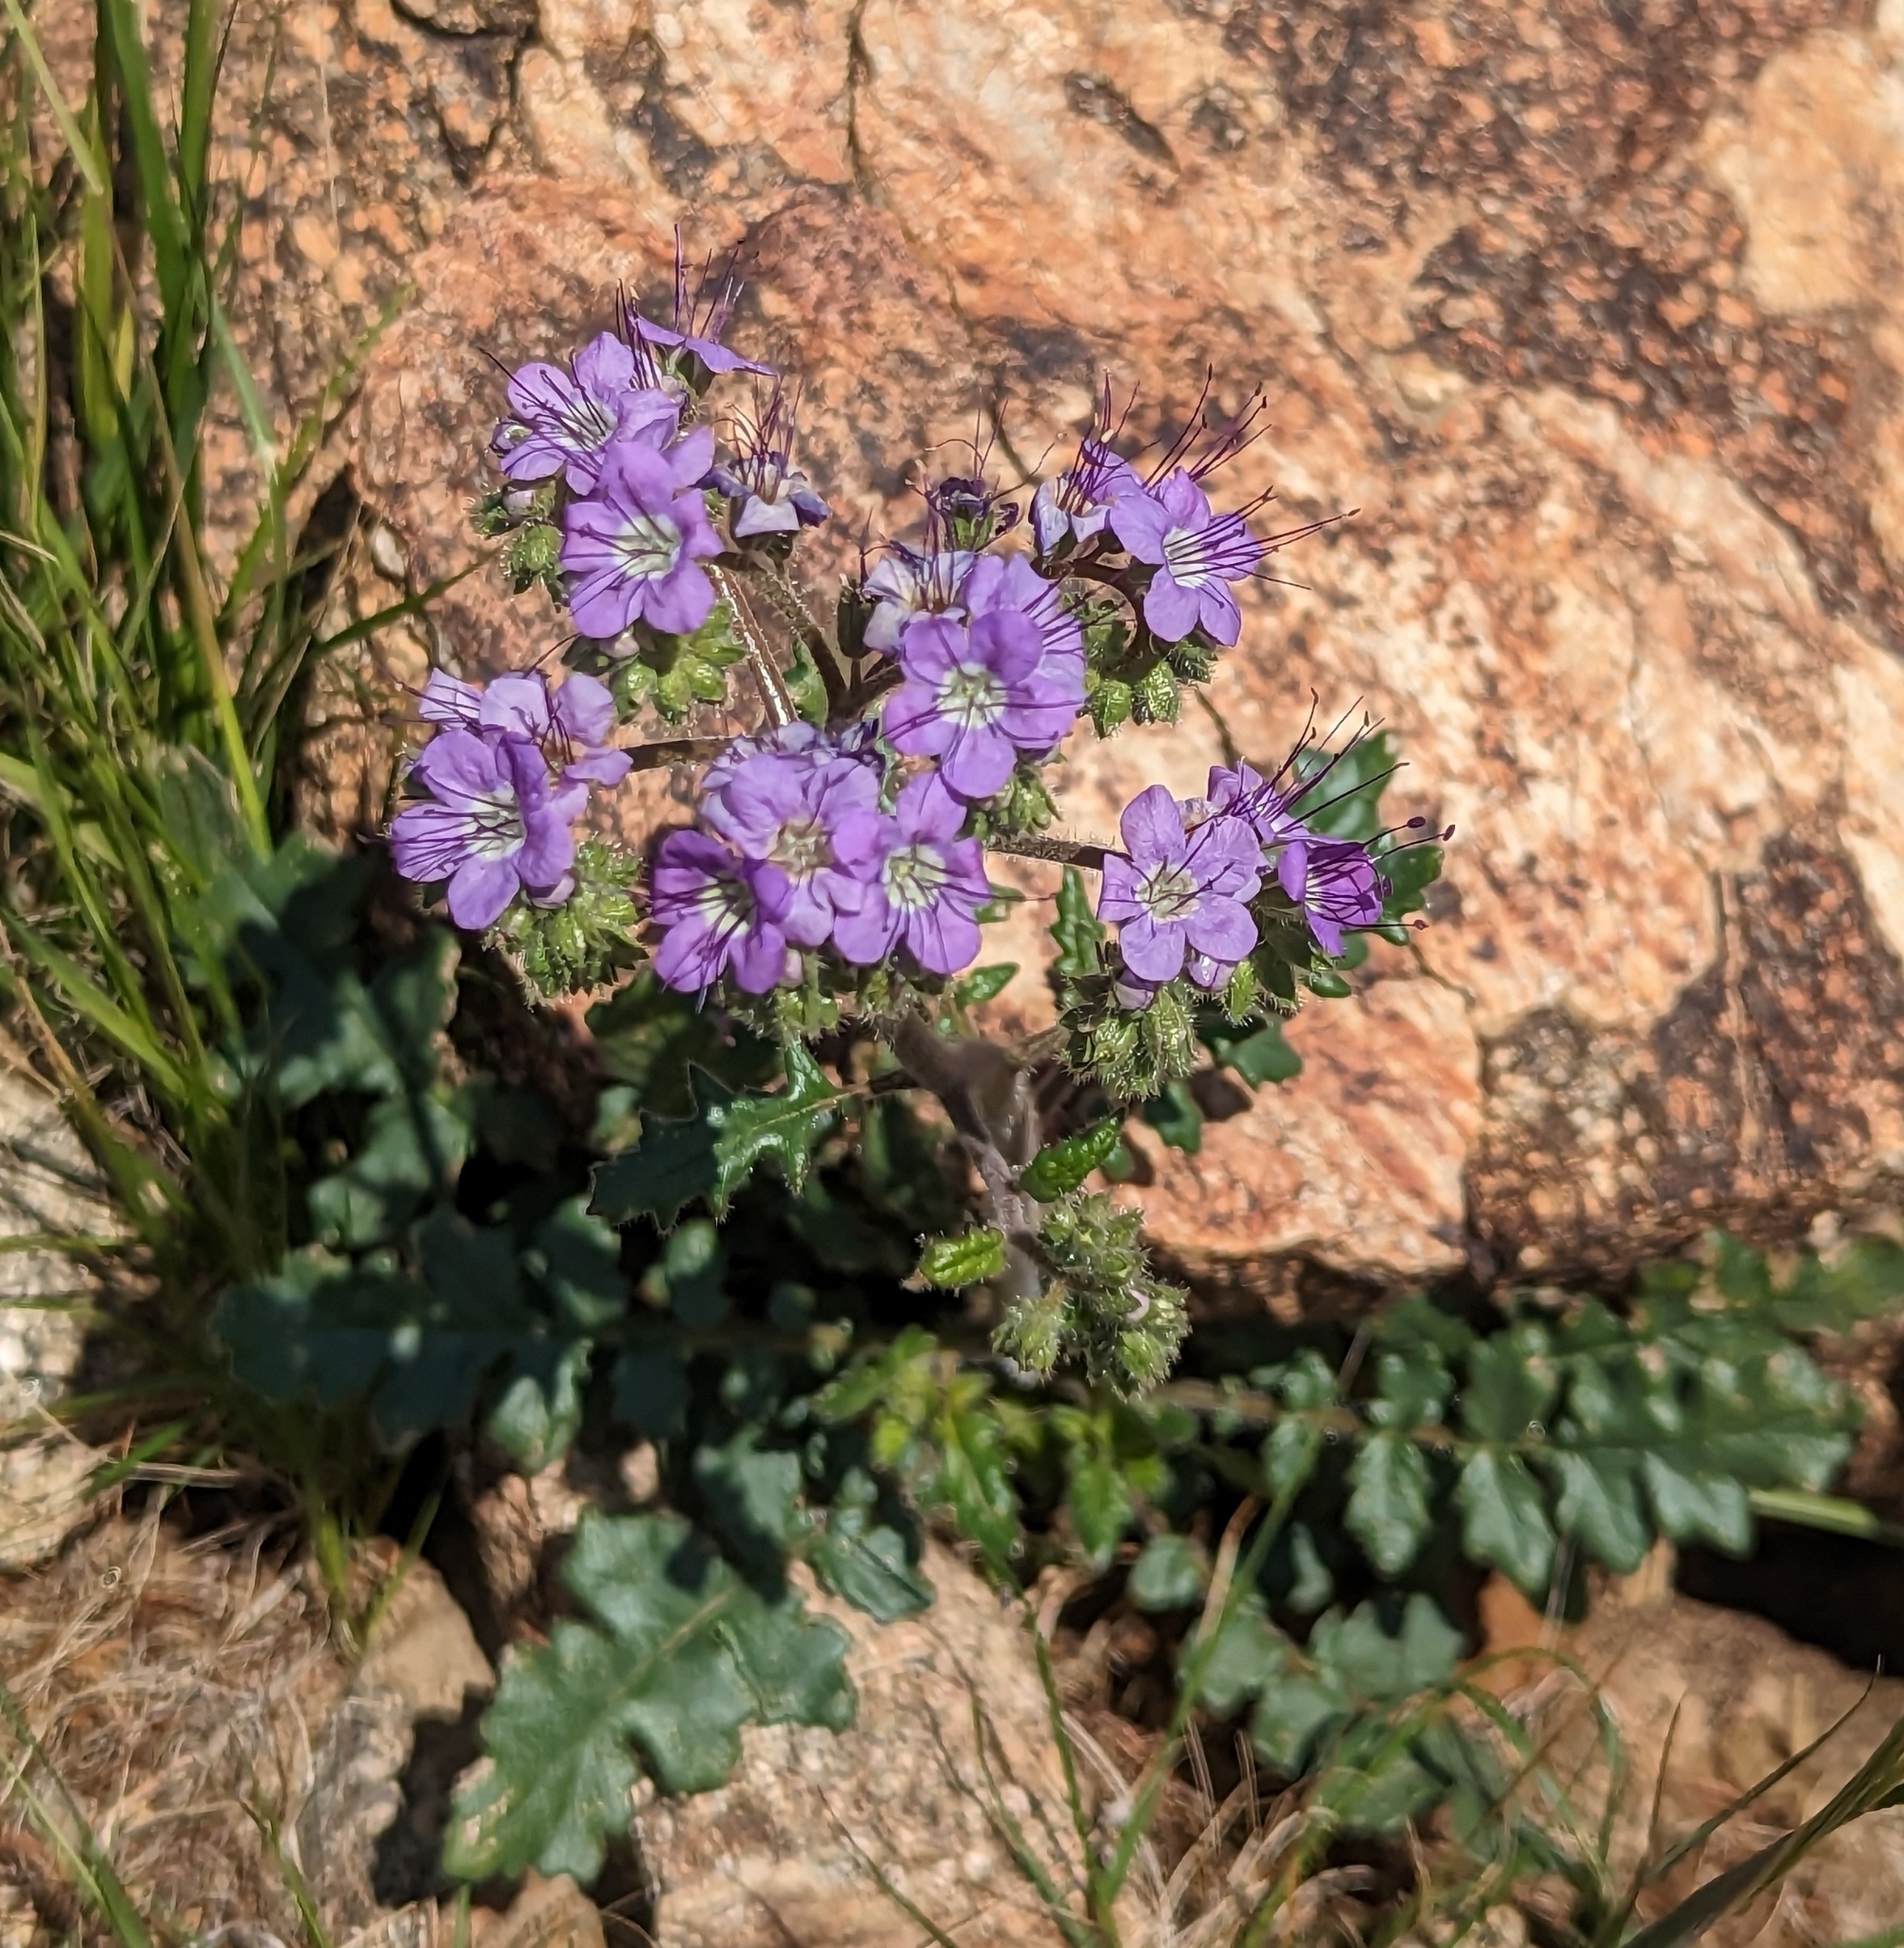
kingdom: Plantae
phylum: Tracheophyta
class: Magnoliopsida
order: Boraginales
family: Hydrophyllaceae
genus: Phacelia
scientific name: Phacelia crenulata
